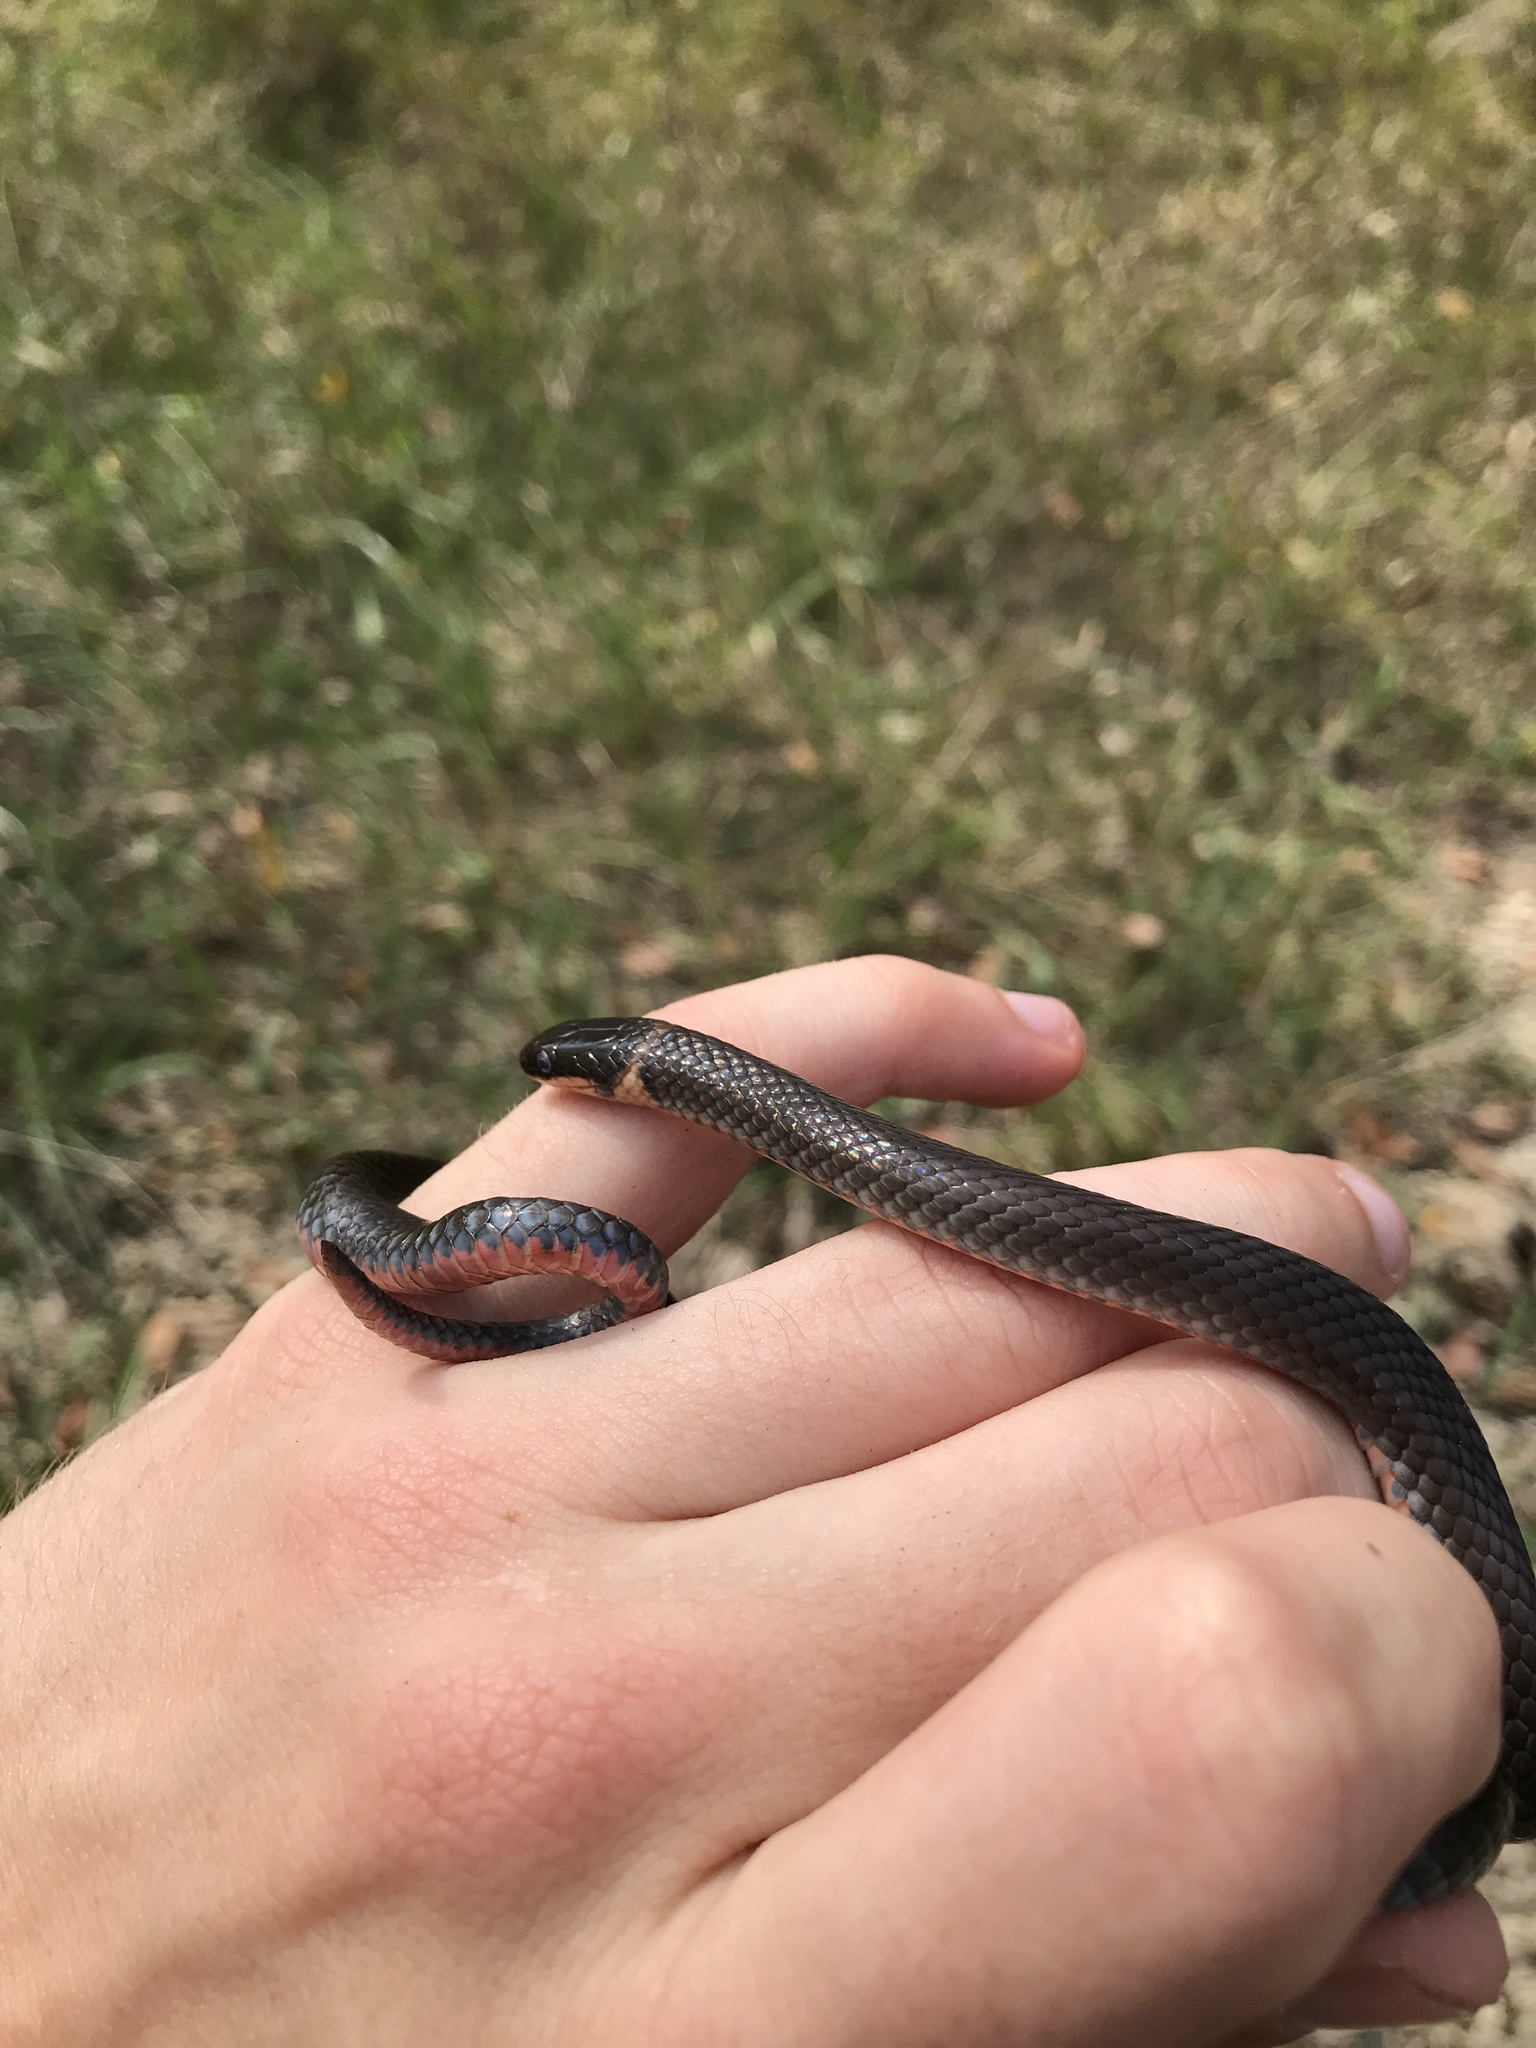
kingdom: Animalia
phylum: Chordata
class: Squamata
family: Colubridae
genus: Diadophis
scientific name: Diadophis punctatus
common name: Ringneck snake
